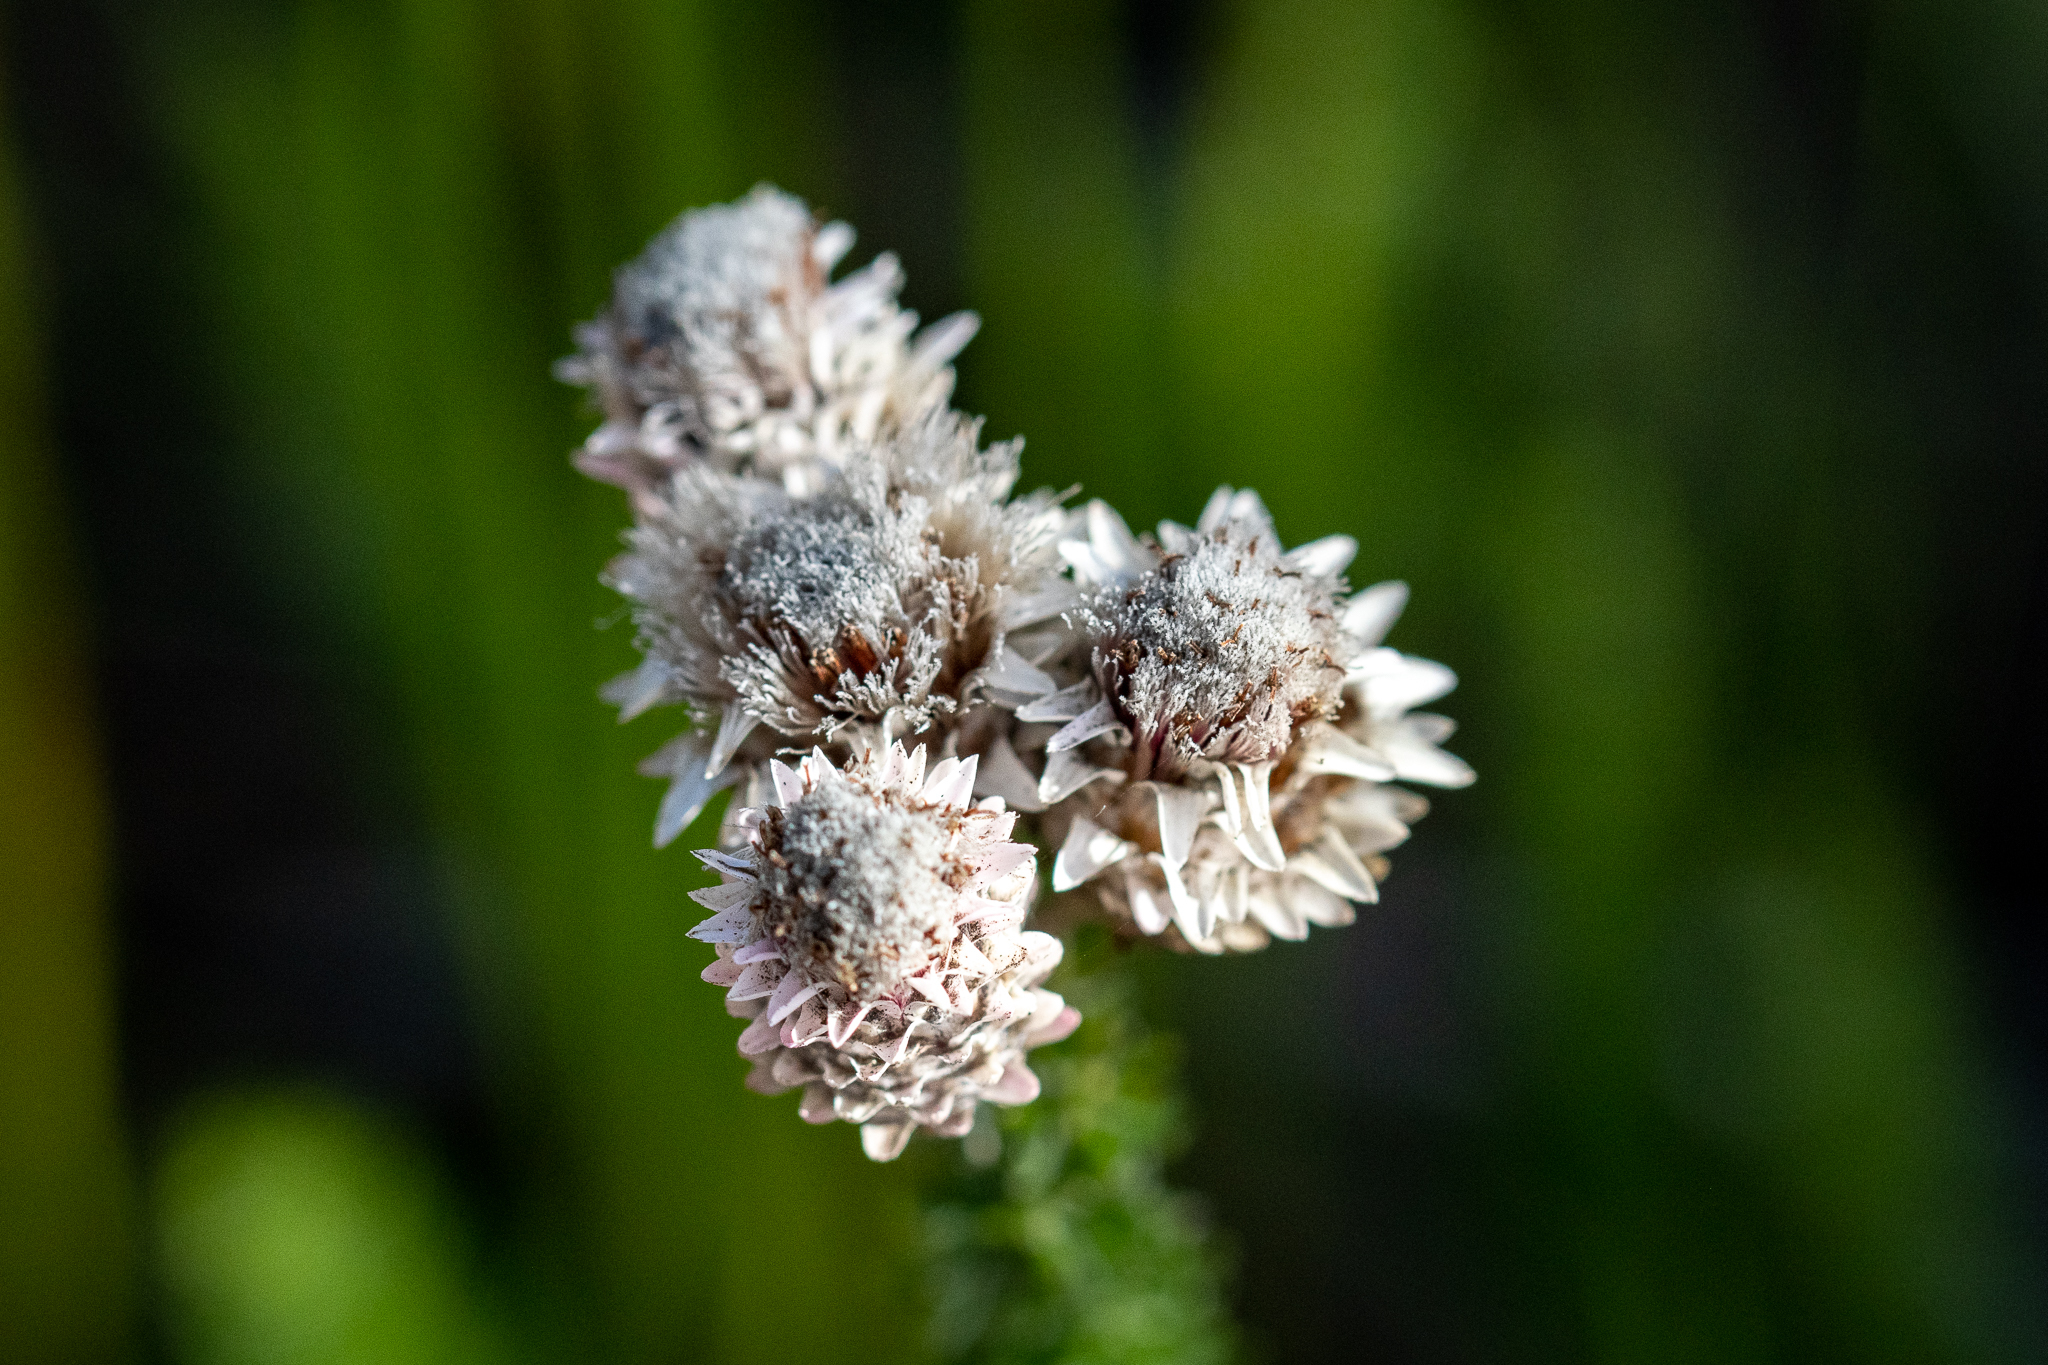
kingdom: Plantae
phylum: Tracheophyta
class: Magnoliopsida
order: Asterales
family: Asteraceae
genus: Lachnospermum
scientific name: Lachnospermum umbellatum
